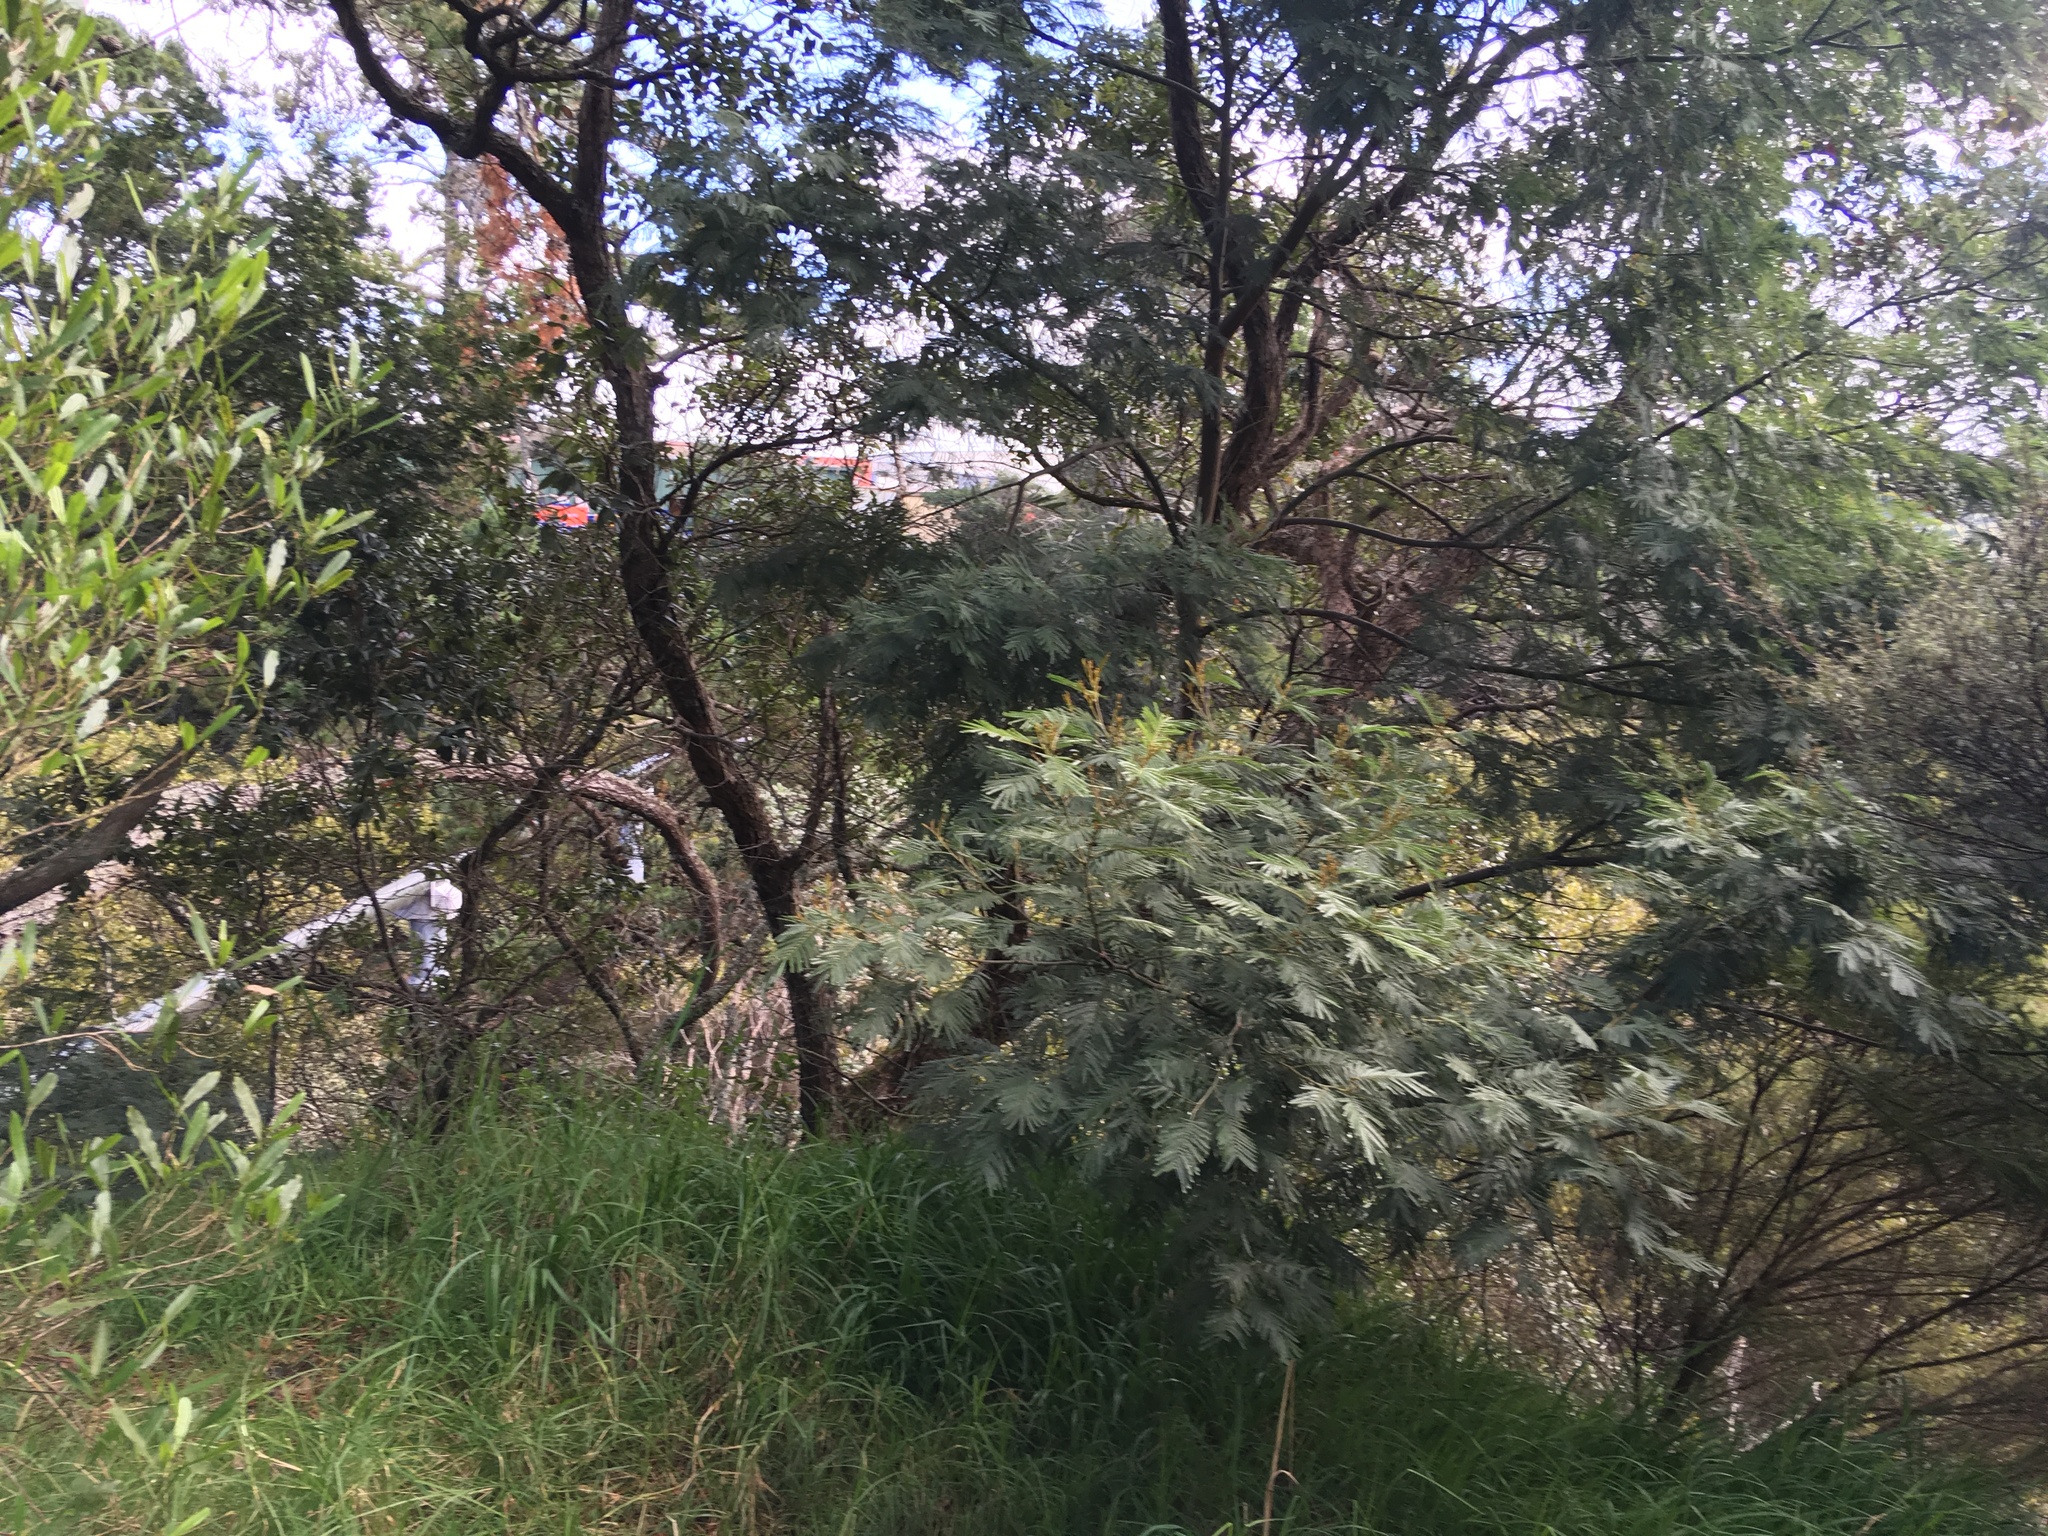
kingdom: Plantae
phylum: Tracheophyta
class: Liliopsida
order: Poales
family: Poaceae
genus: Cenchrus
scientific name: Cenchrus clandestinus
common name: Kikuyugrass
